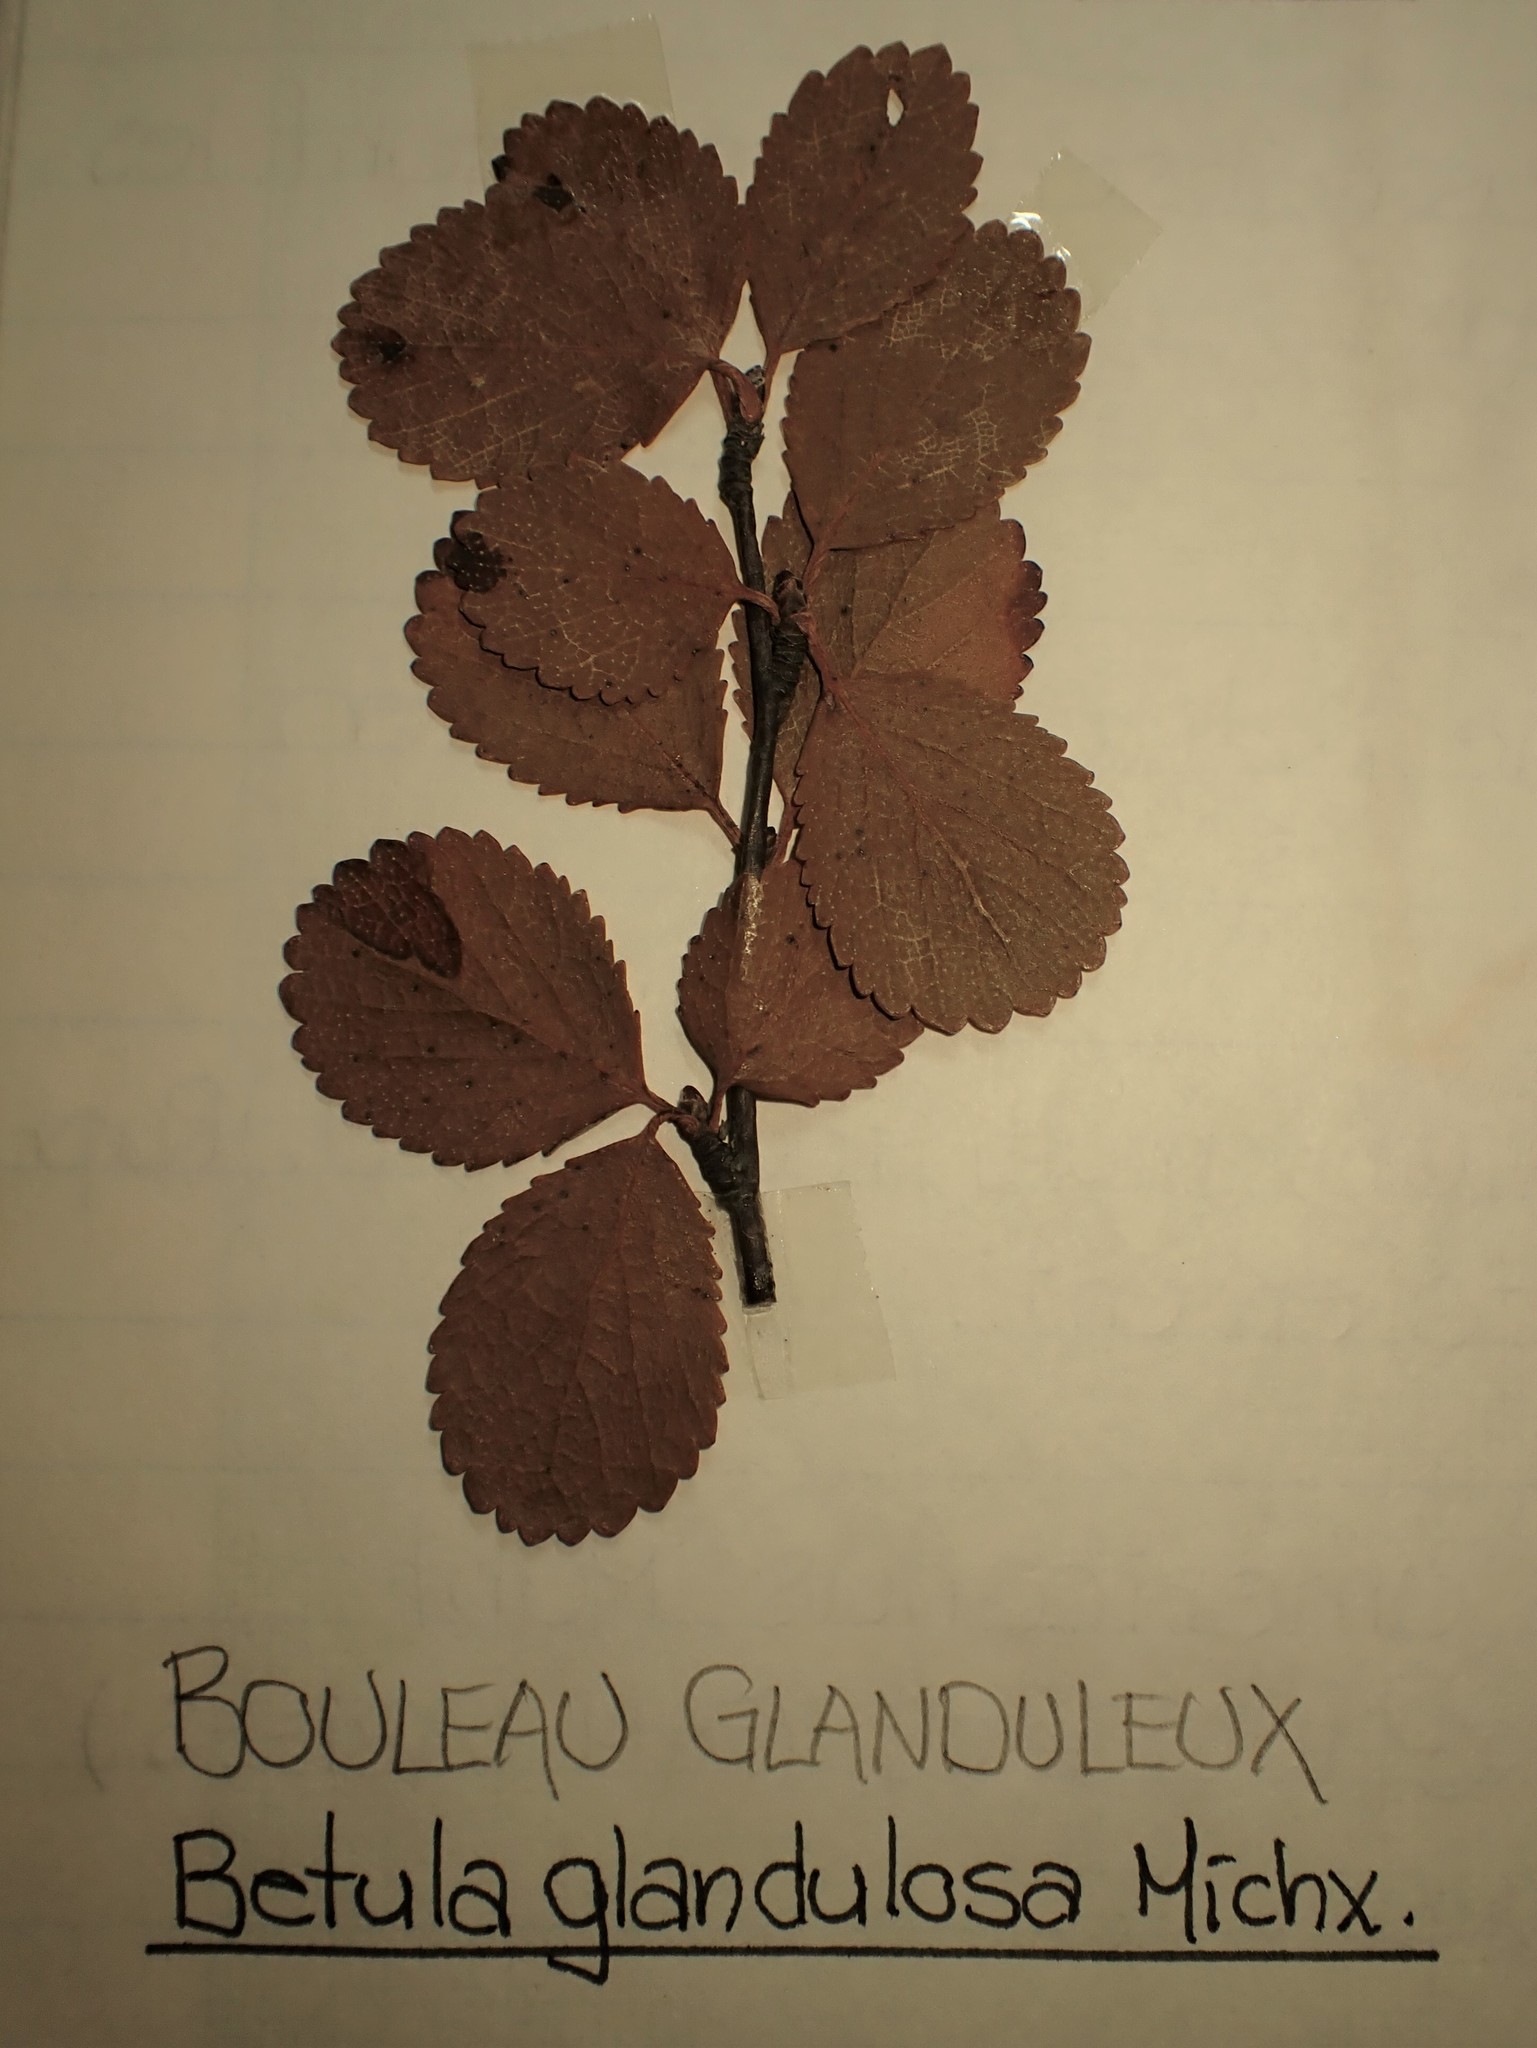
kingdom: Plantae
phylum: Tracheophyta
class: Magnoliopsida
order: Fagales
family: Betulaceae
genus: Betula
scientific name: Betula pumila
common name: Bog birch
